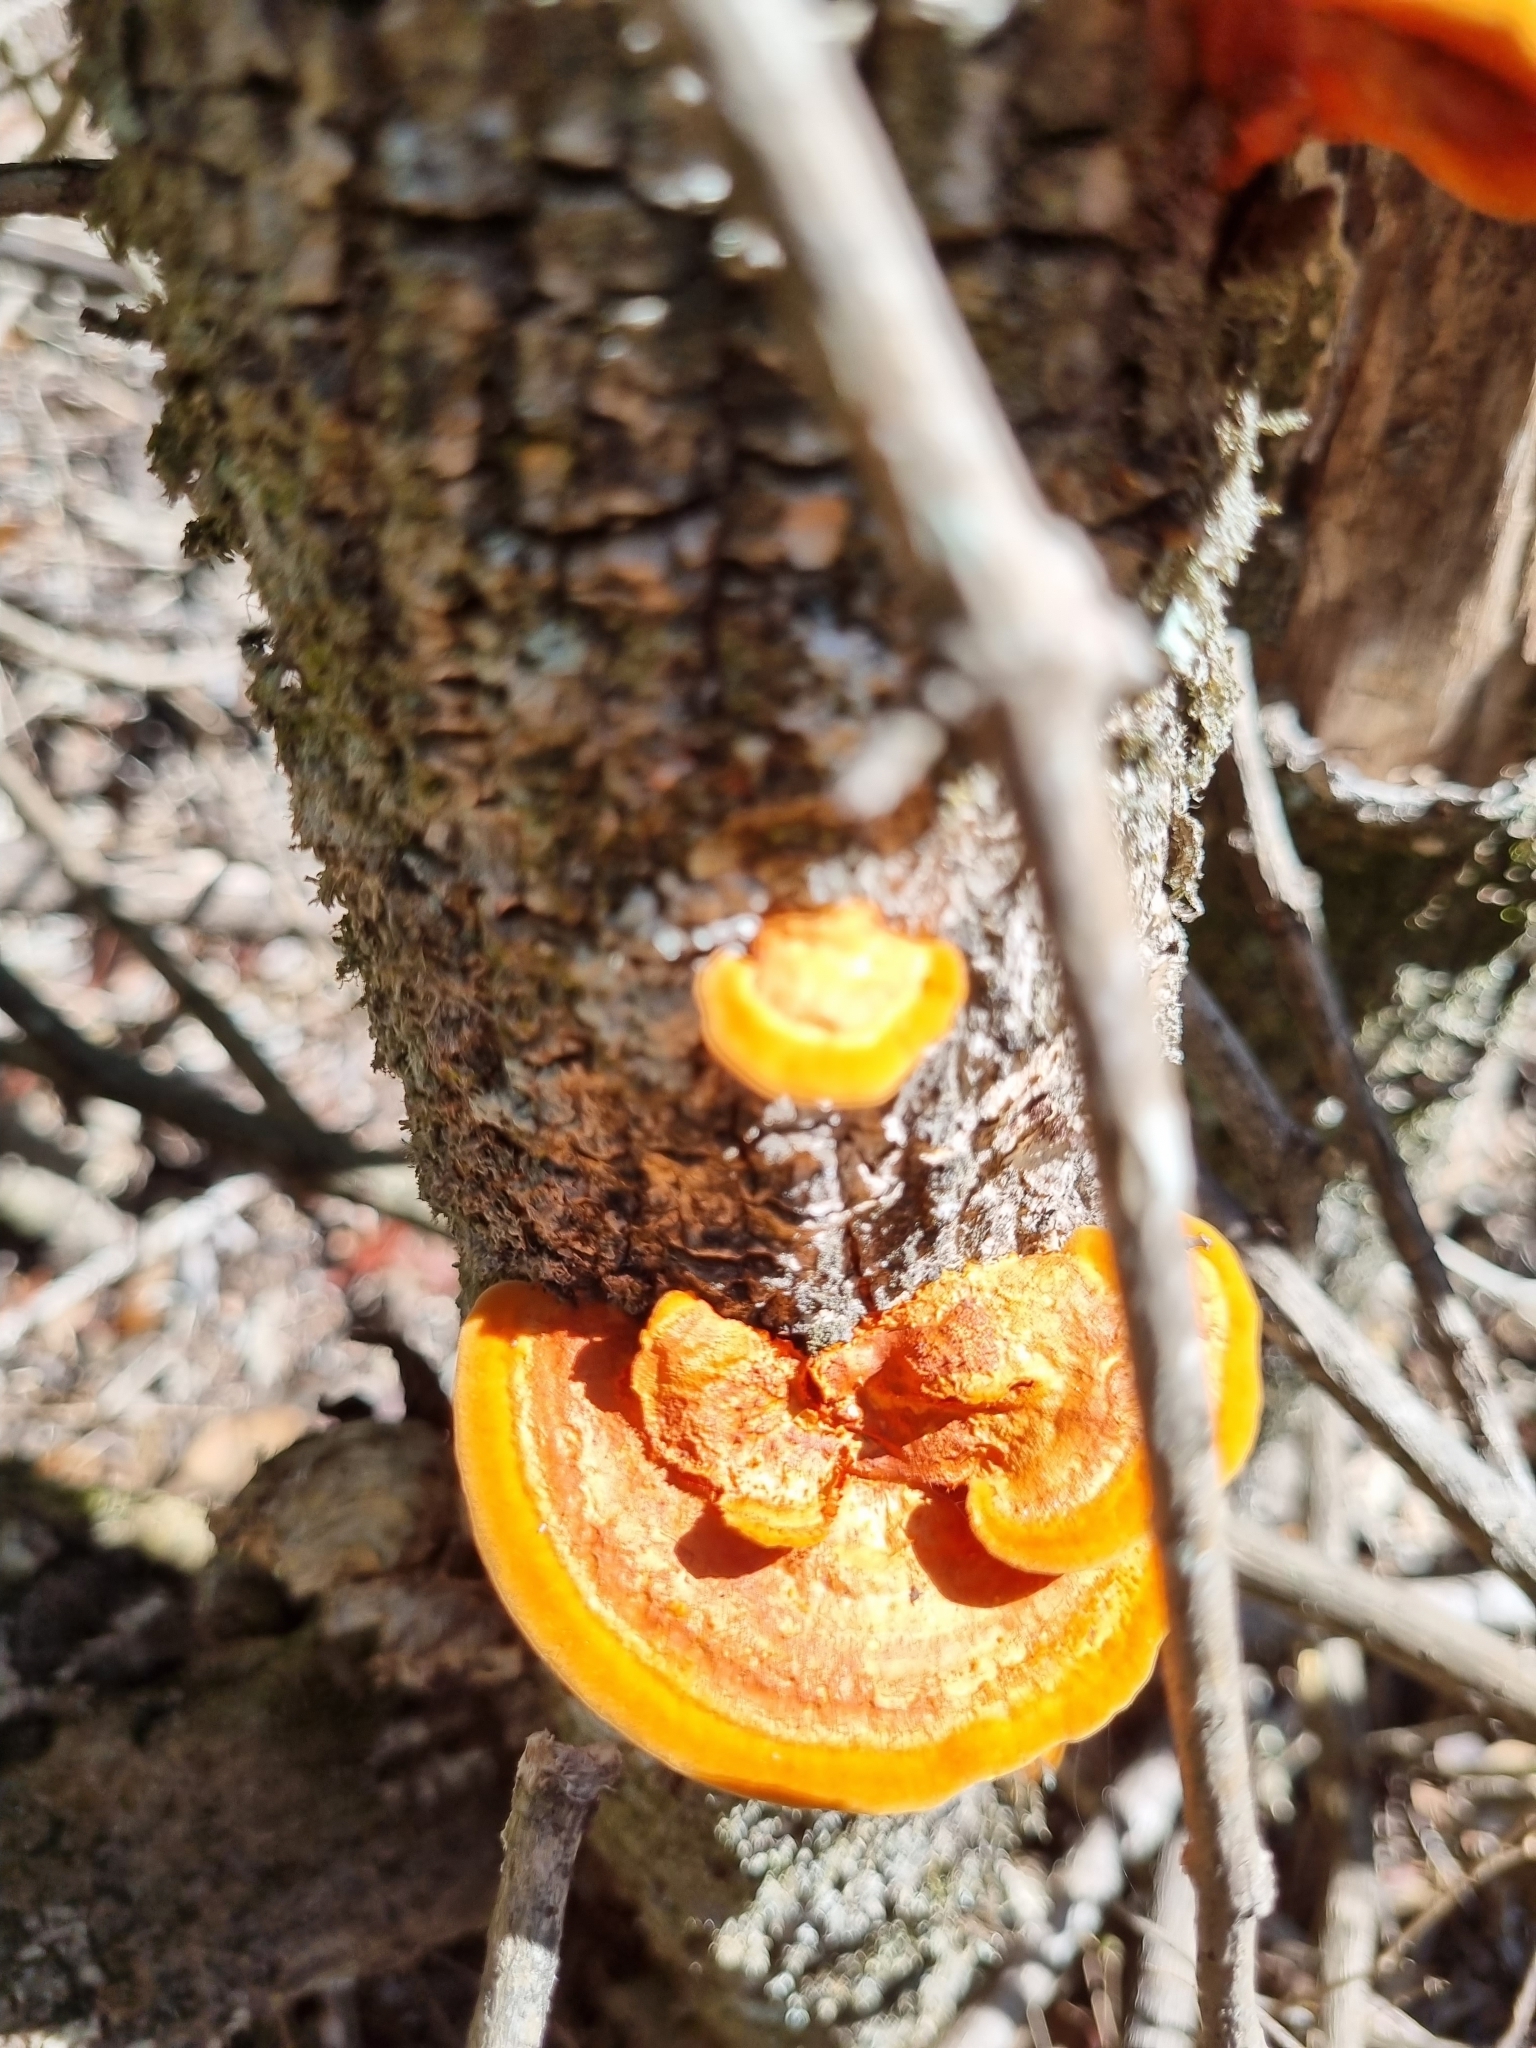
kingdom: Fungi
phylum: Basidiomycota
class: Agaricomycetes
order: Polyporales
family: Polyporaceae
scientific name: Polyporaceae
